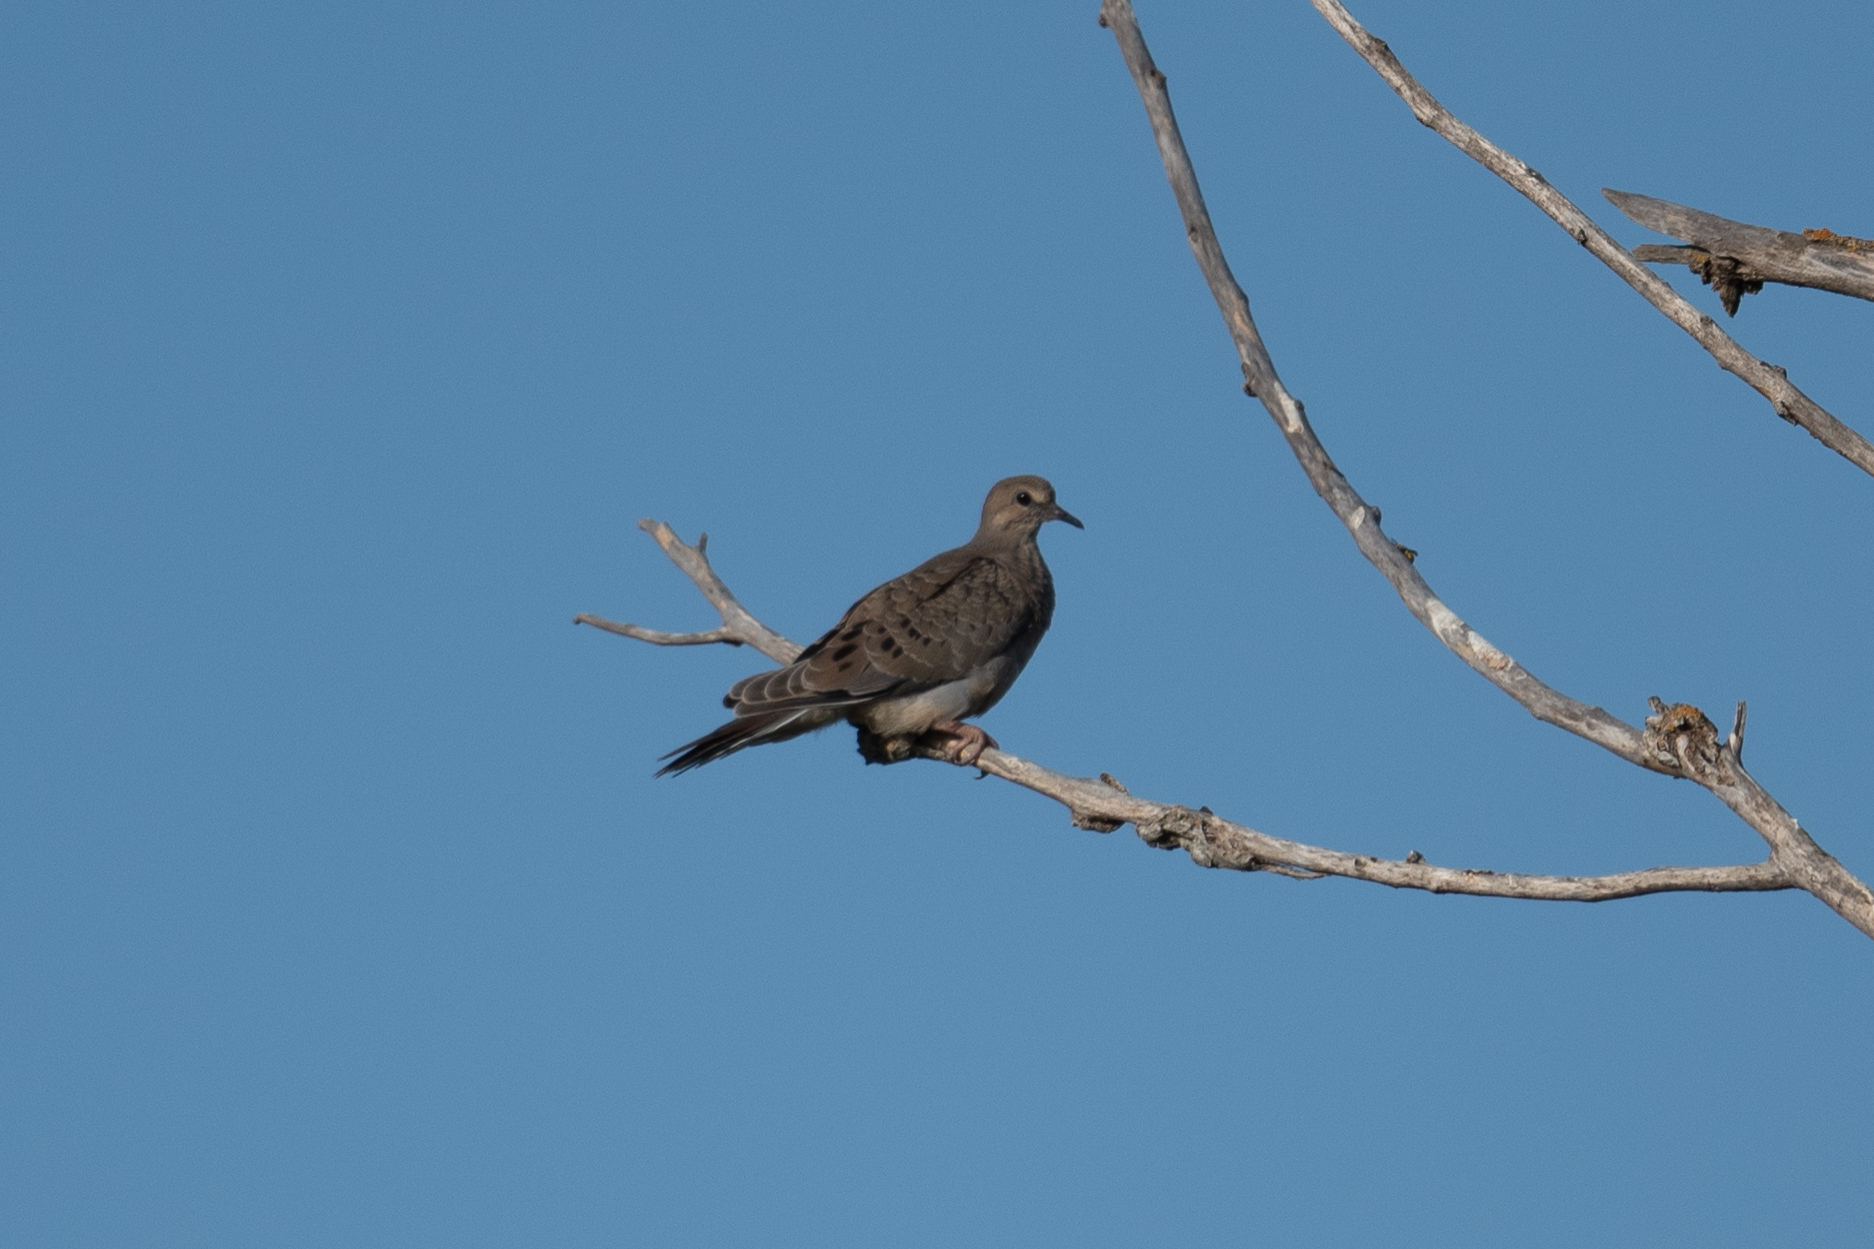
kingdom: Animalia
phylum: Chordata
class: Aves
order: Columbiformes
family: Columbidae
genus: Zenaida
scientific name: Zenaida macroura
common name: Mourning dove
